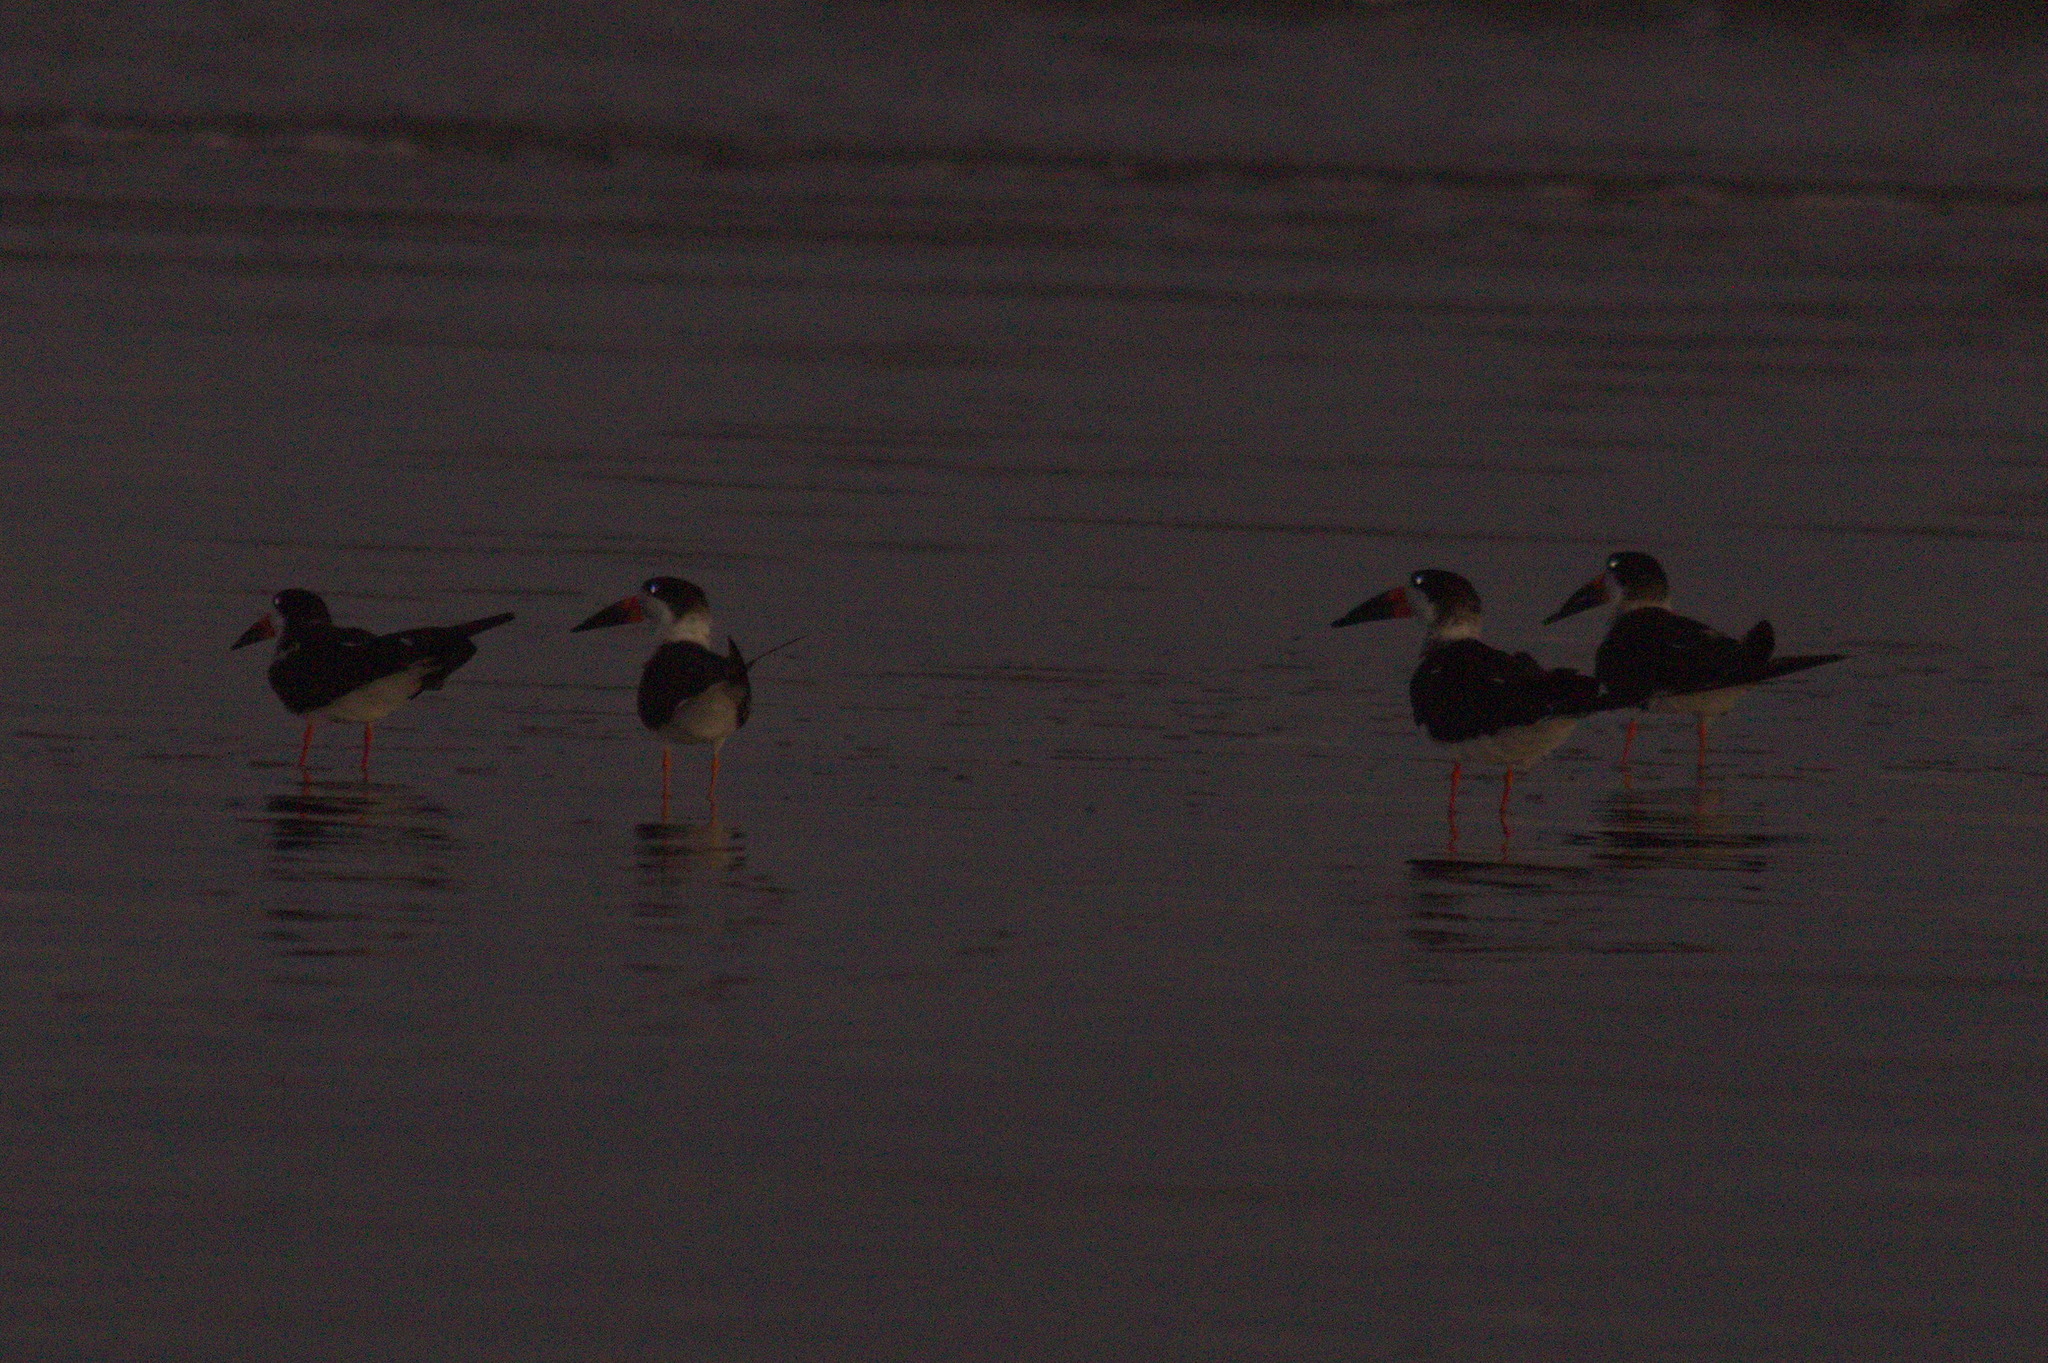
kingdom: Animalia
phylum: Chordata
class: Aves
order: Charadriiformes
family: Laridae
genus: Rynchops
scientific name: Rynchops niger
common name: Black skimmer
